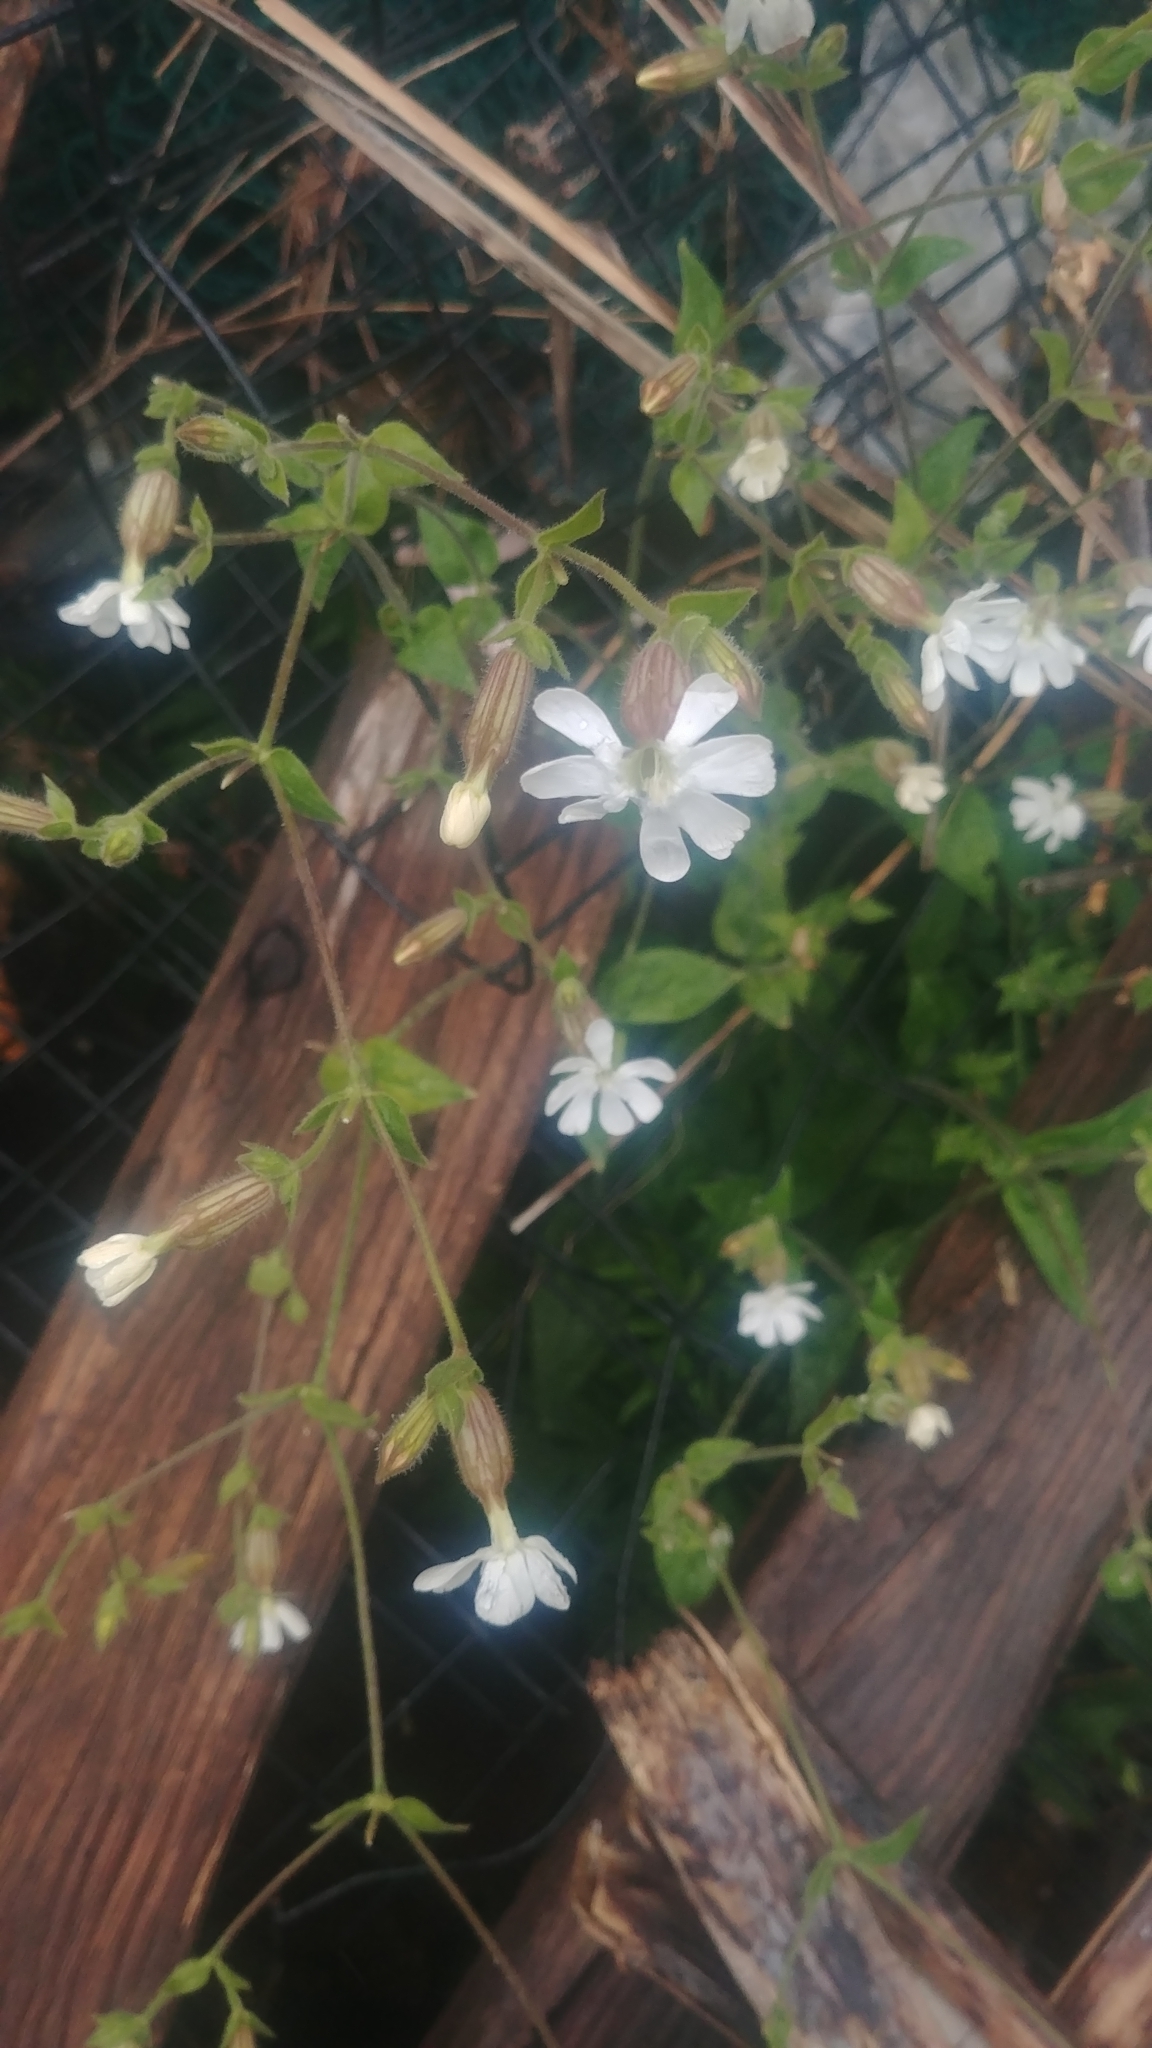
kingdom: Plantae
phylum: Tracheophyta
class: Magnoliopsida
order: Caryophyllales
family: Caryophyllaceae
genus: Silene
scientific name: Silene latifolia
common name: White campion
